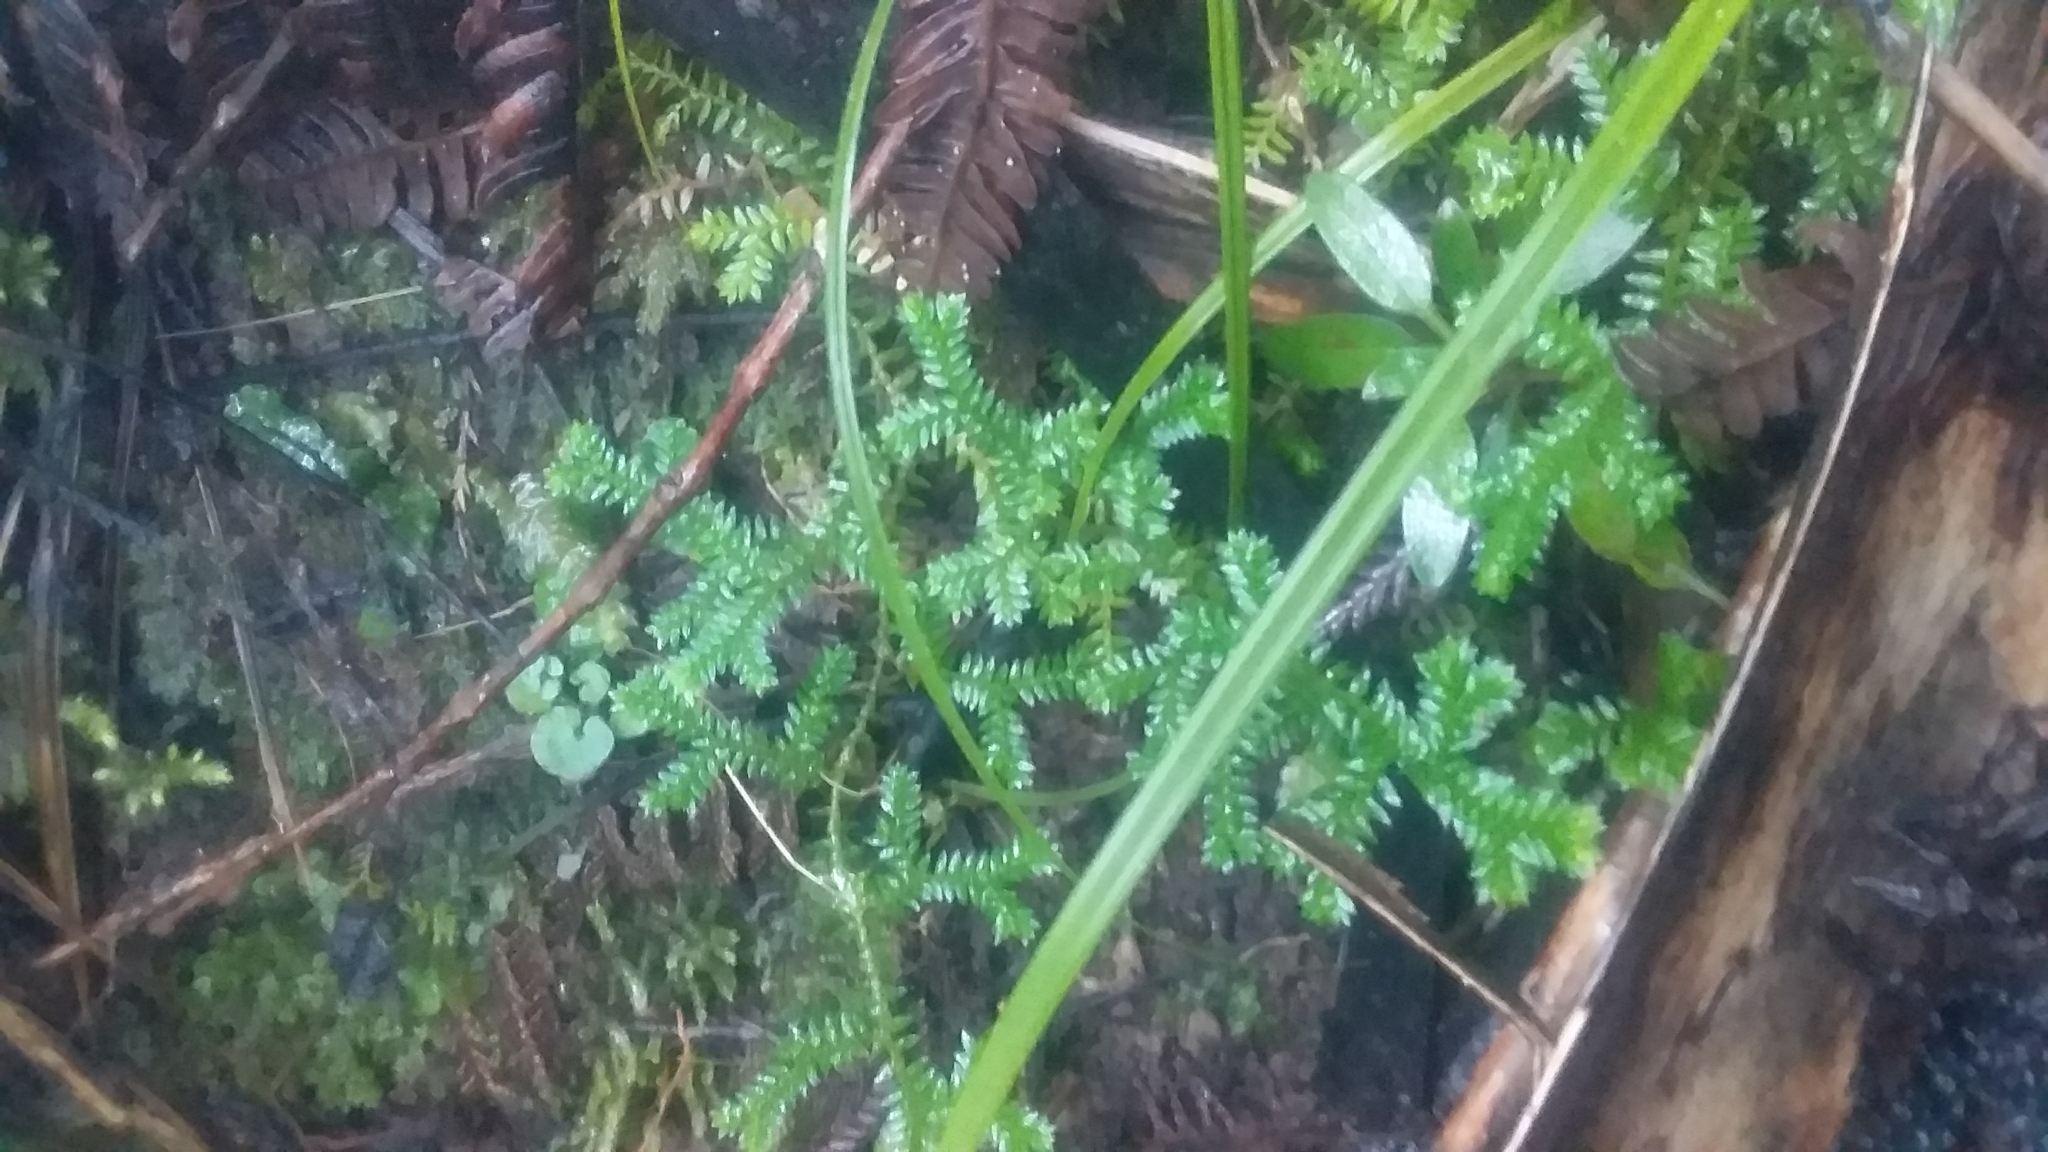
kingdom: Plantae
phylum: Tracheophyta
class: Lycopodiopsida
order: Selaginellales
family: Selaginellaceae
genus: Selaginella
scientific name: Selaginella kraussiana
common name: Krauss' spikemoss
